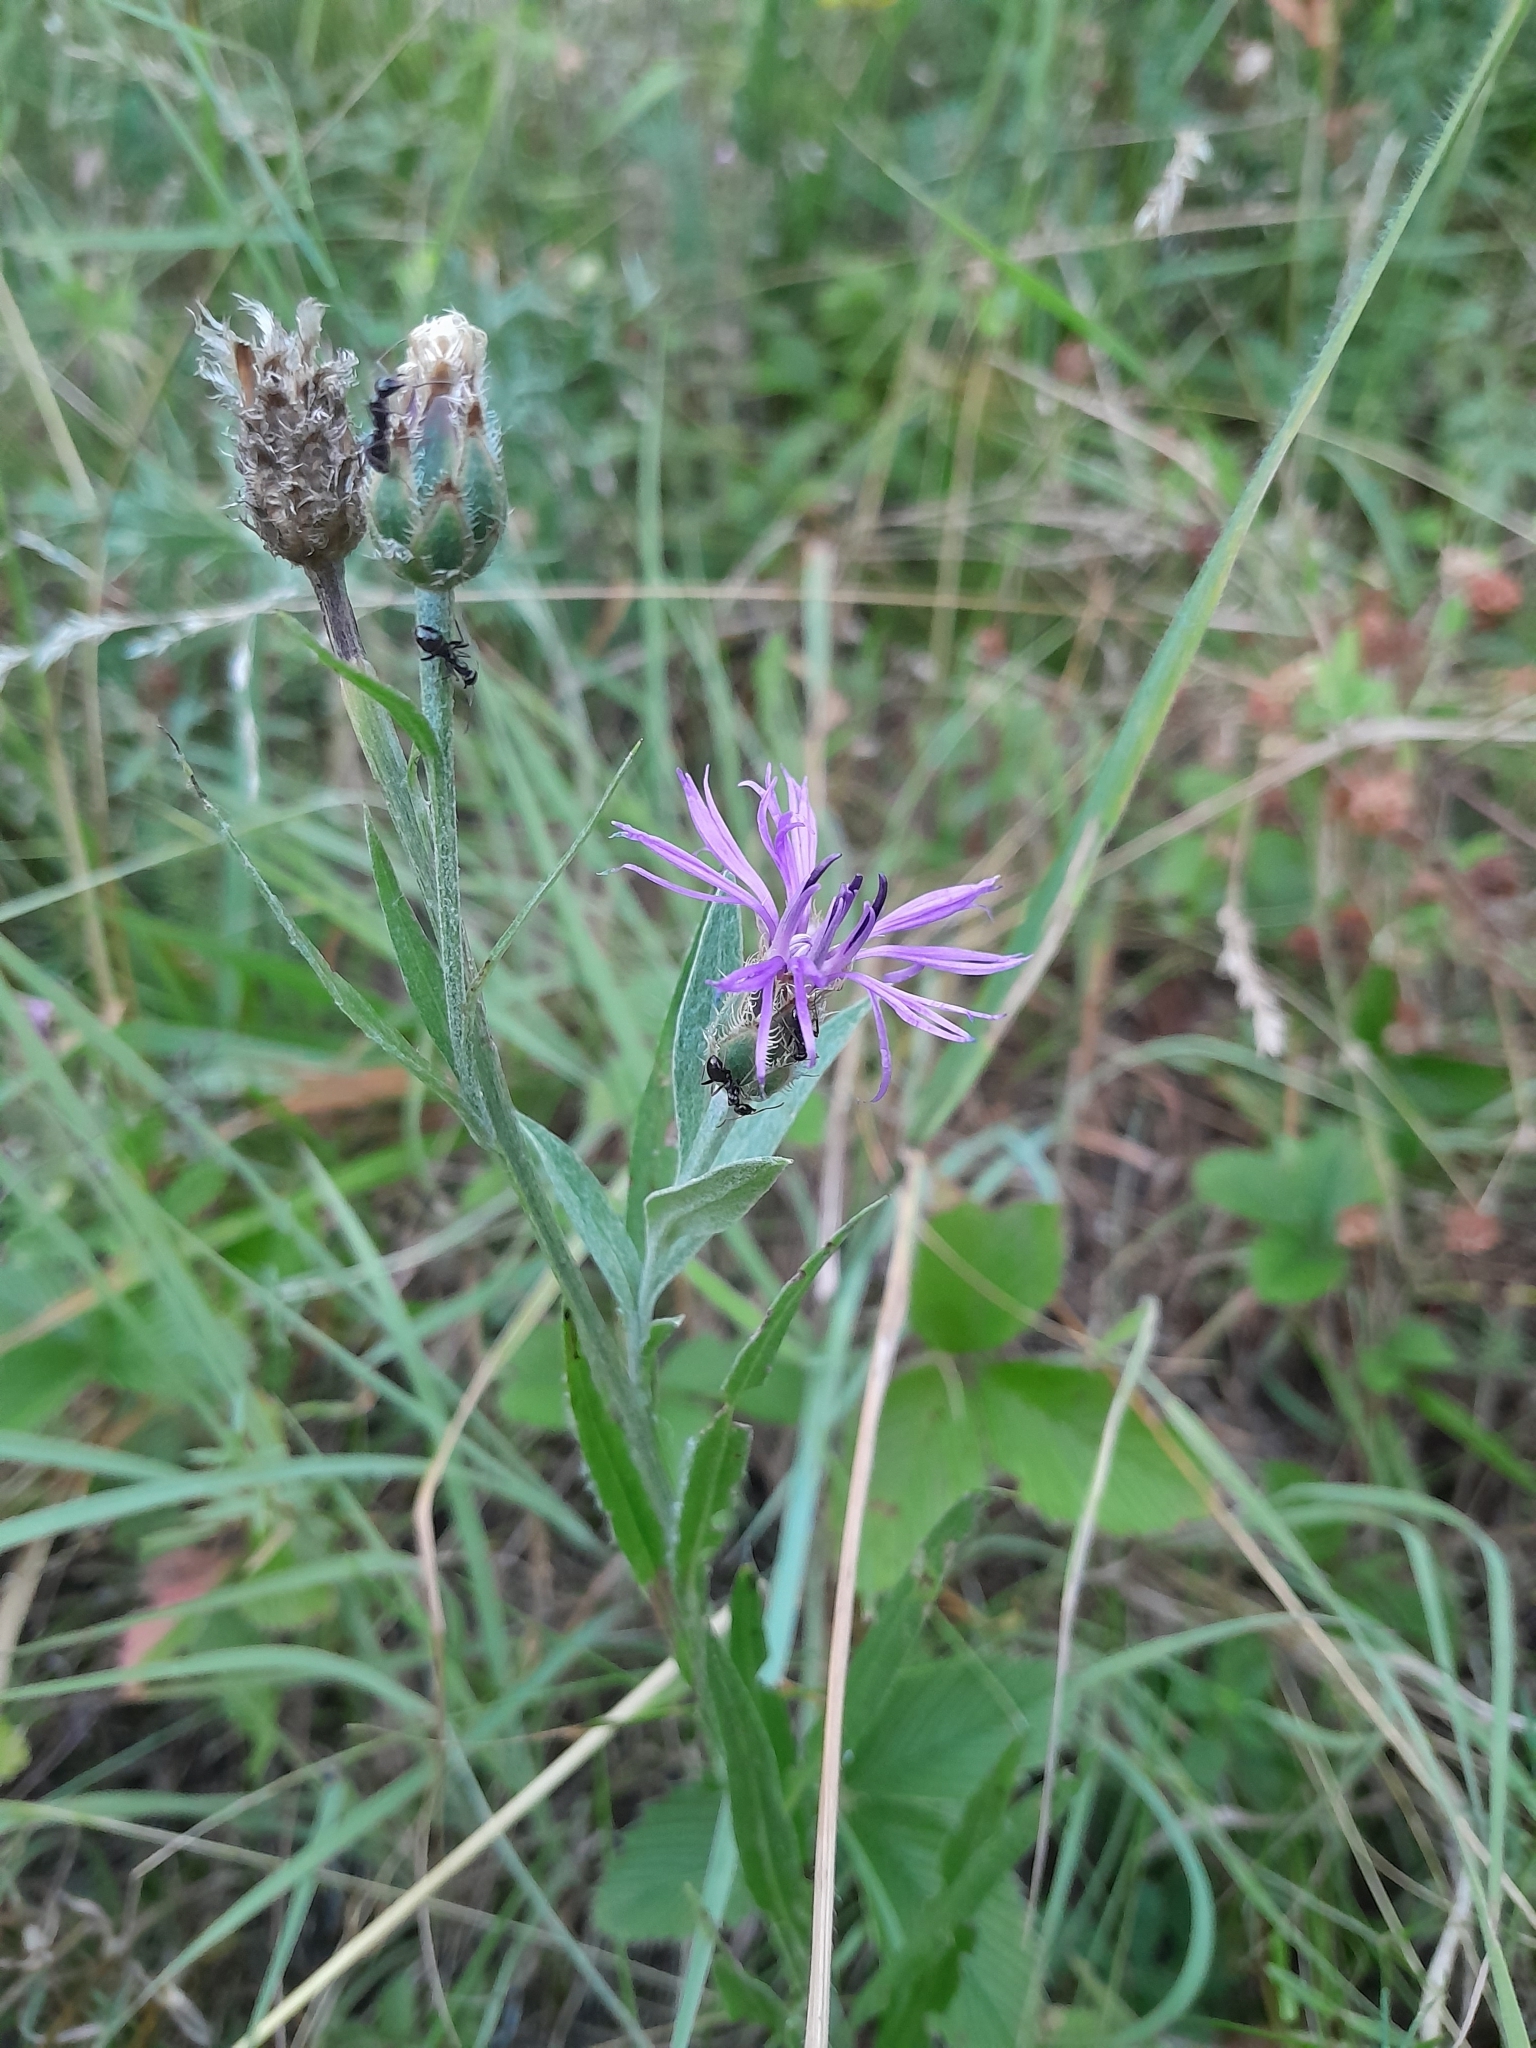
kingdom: Plantae
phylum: Tracheophyta
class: Magnoliopsida
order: Asterales
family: Asteraceae
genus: Centaurea
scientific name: Centaurea triumfettii
